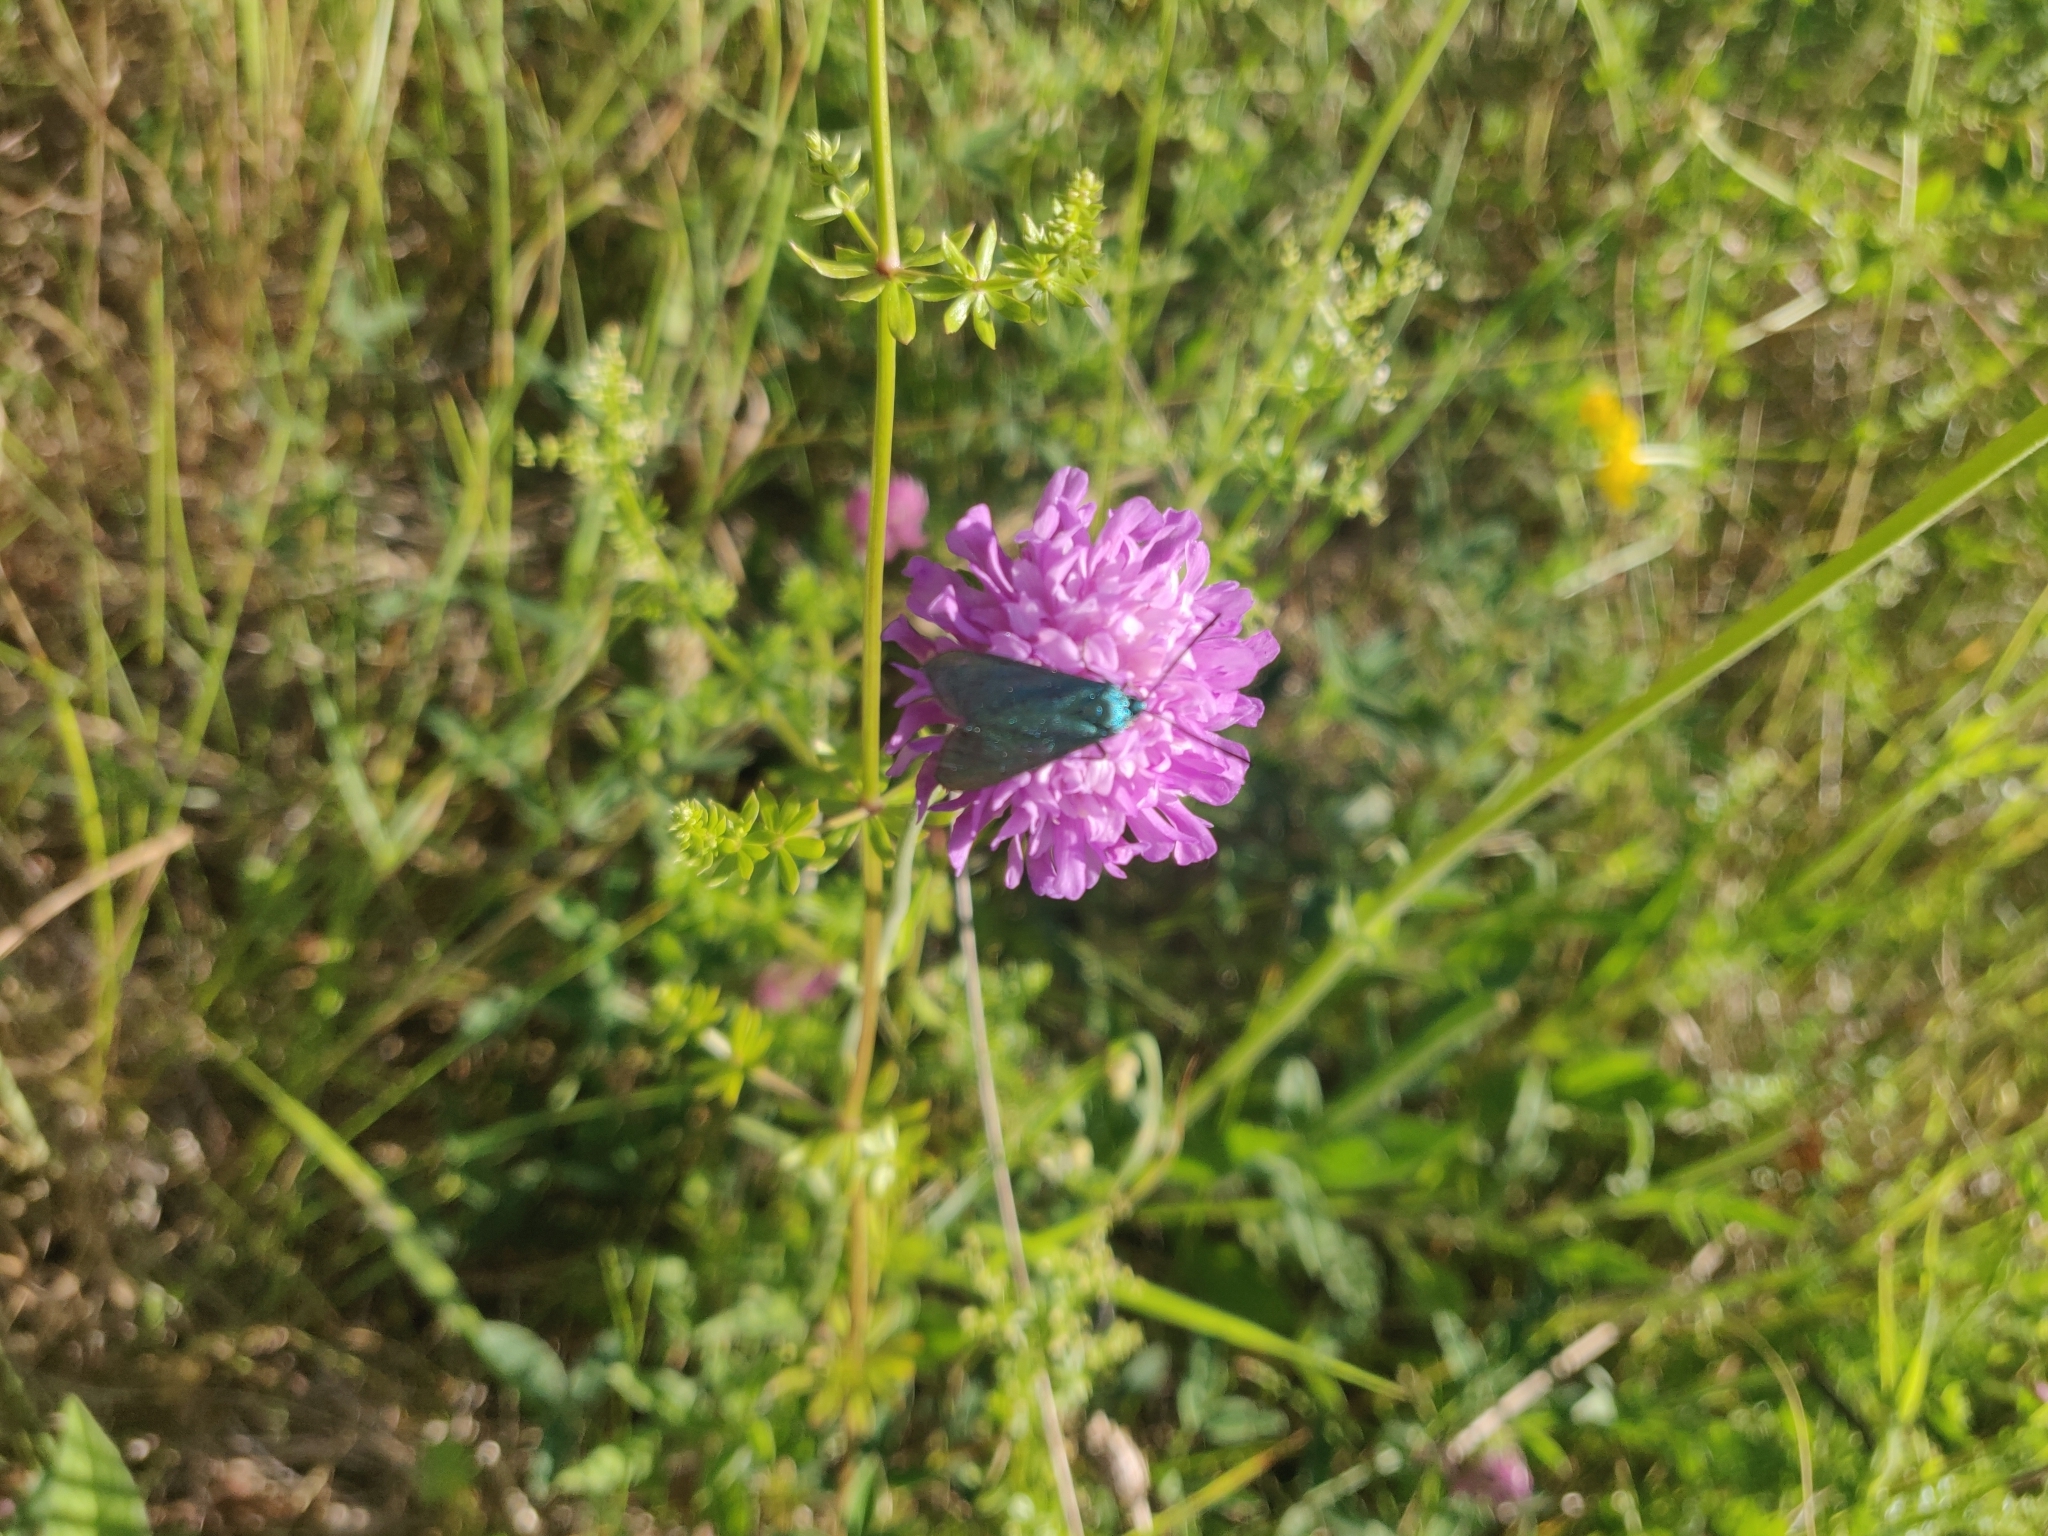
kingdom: Animalia
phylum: Arthropoda
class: Insecta
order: Lepidoptera
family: Zygaenidae
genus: Adscita
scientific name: Adscita statices
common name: Forester
